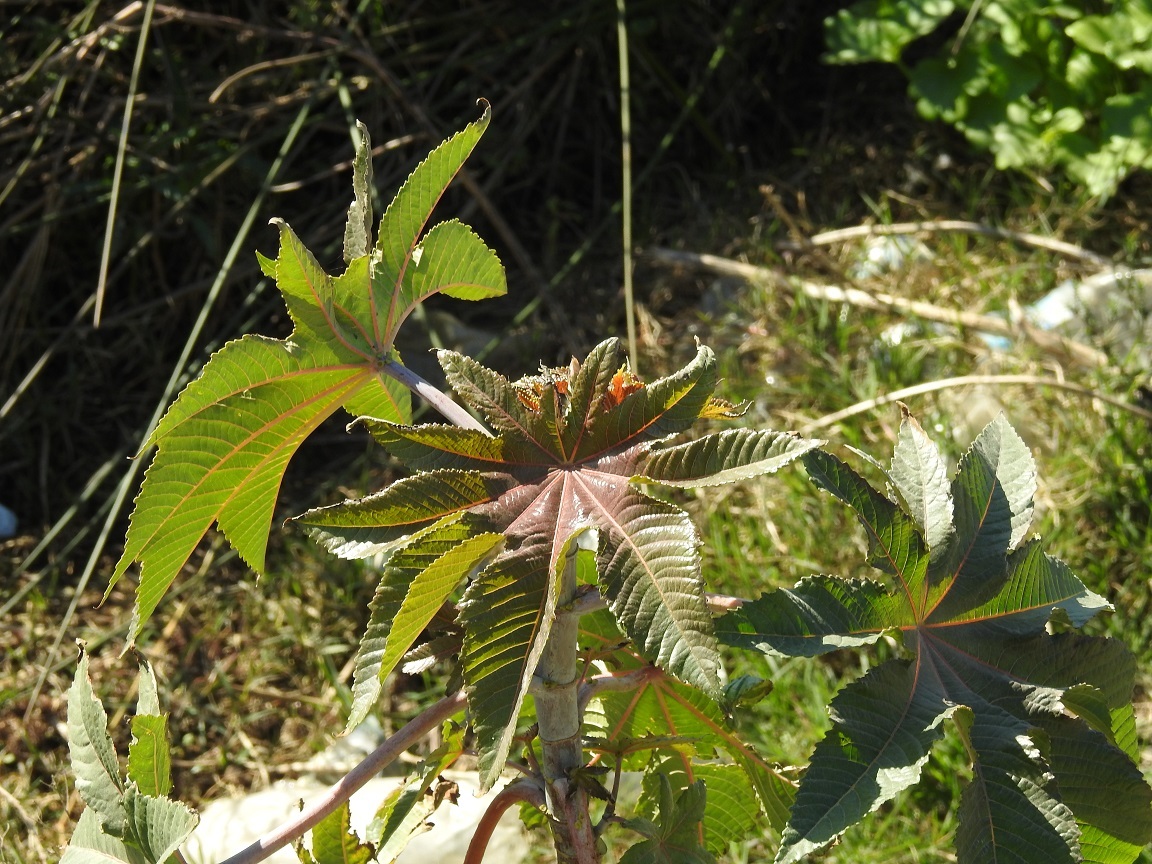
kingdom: Plantae
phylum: Tracheophyta
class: Magnoliopsida
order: Malpighiales
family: Euphorbiaceae
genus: Ricinus
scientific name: Ricinus communis
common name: Castor-oil-plant
